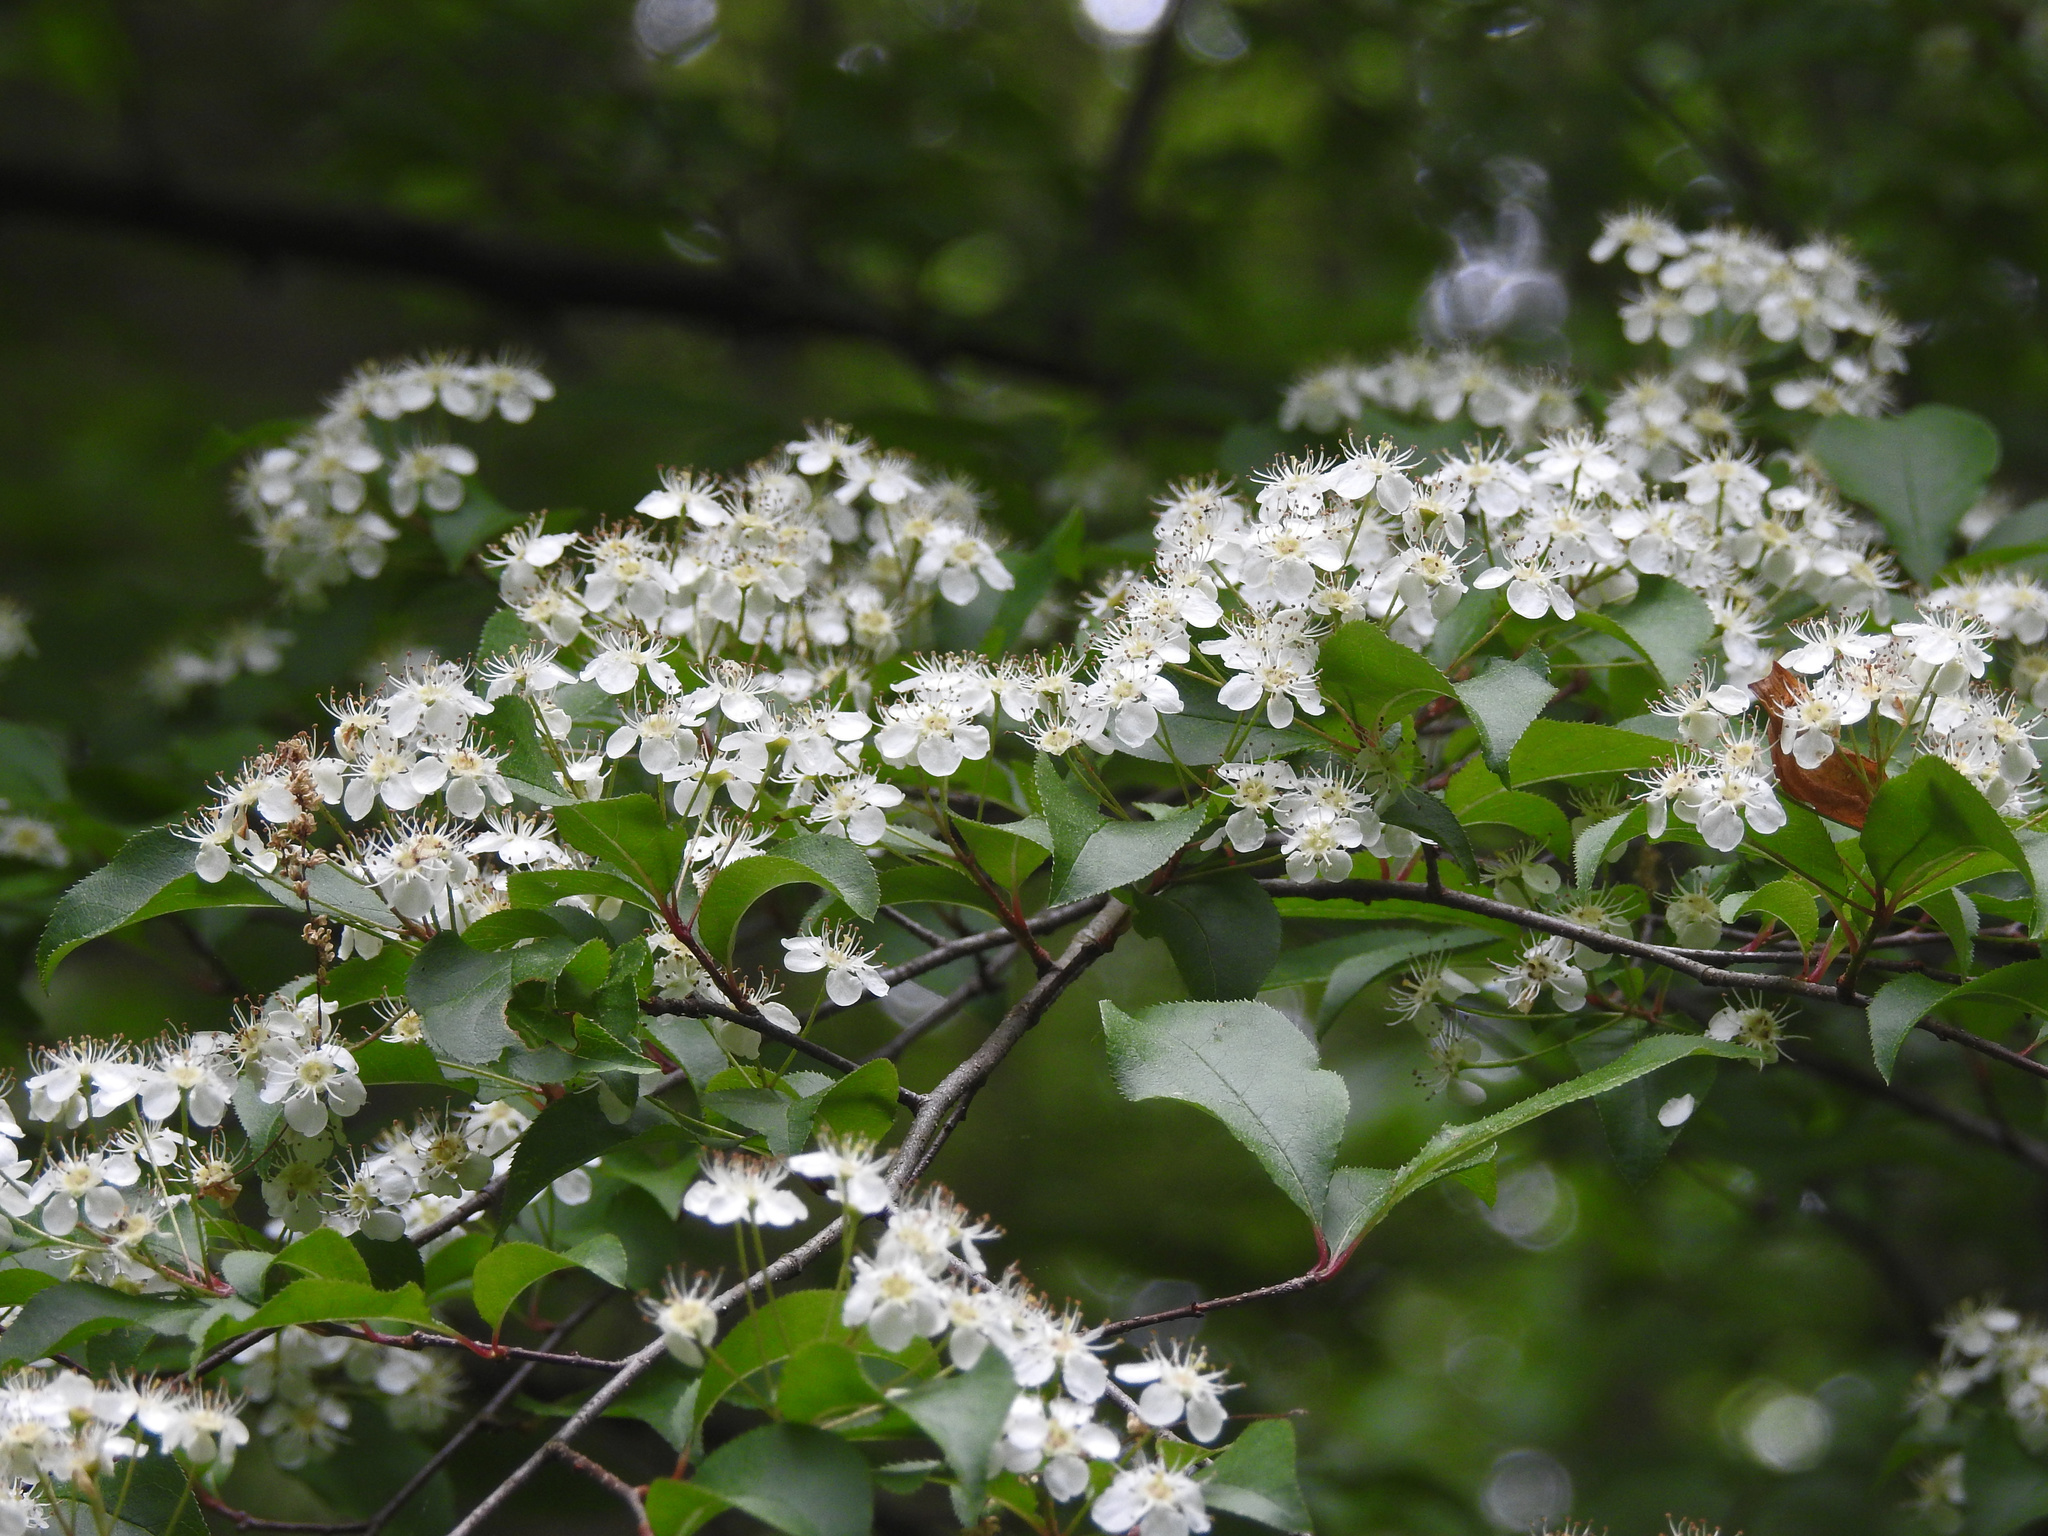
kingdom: Plantae
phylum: Tracheophyta
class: Magnoliopsida
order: Rosales
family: Rosaceae
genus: Pourthiaea
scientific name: Pourthiaea villosa
